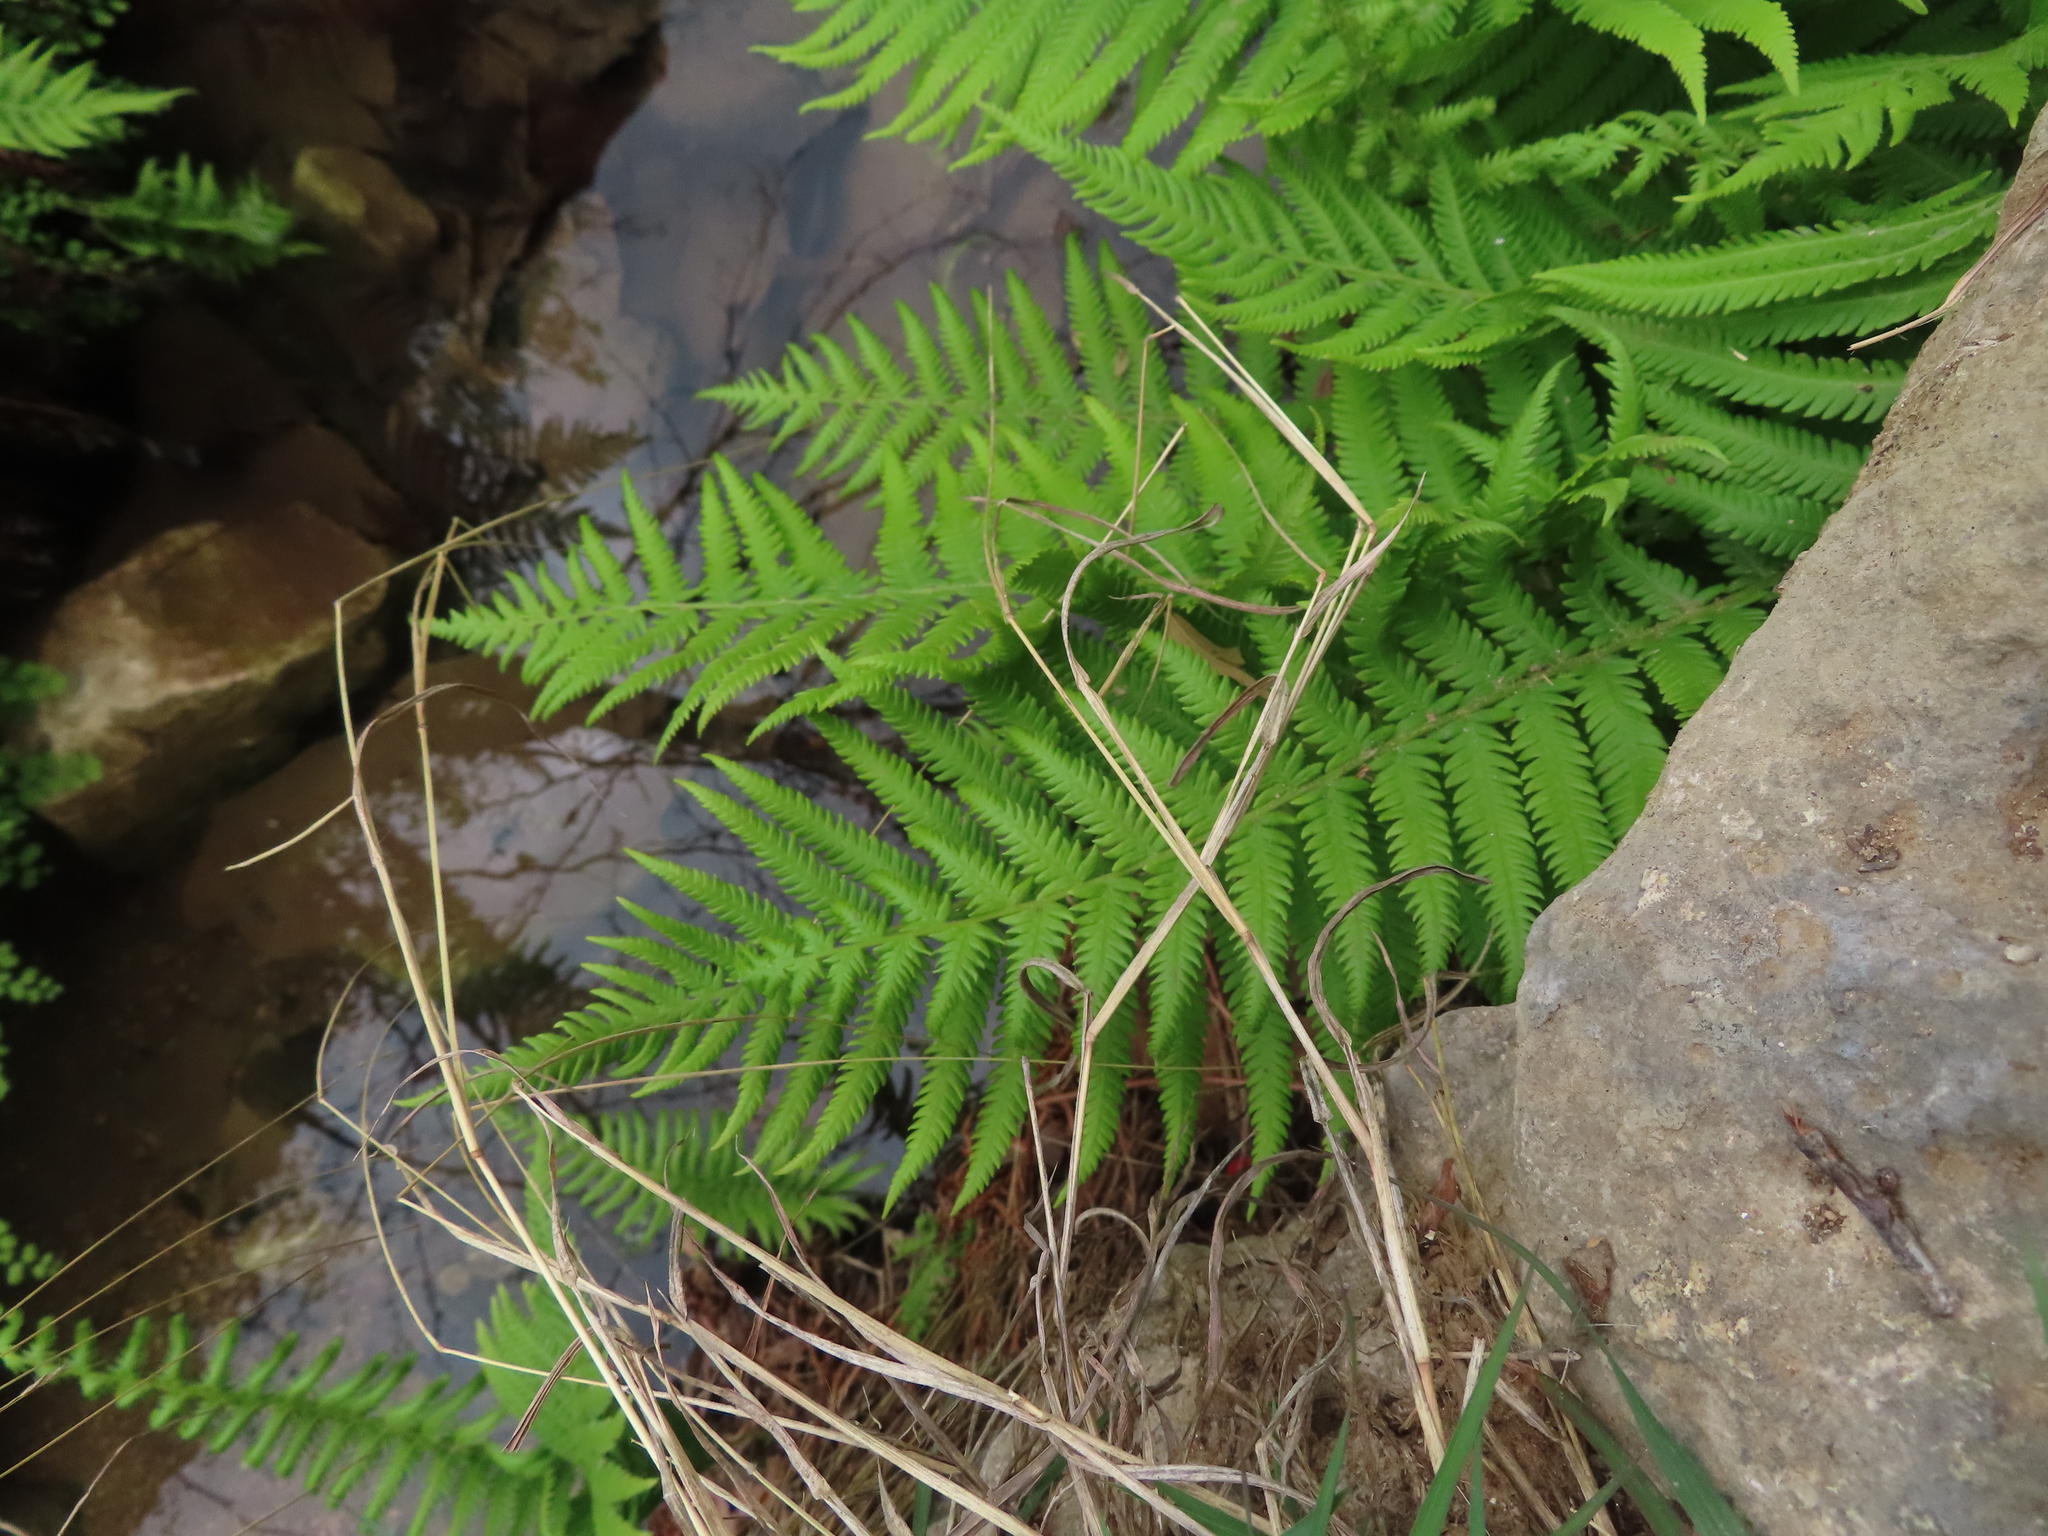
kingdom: Plantae
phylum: Tracheophyta
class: Polypodiopsida
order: Polypodiales
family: Thelypteridaceae
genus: Pelazoneuron
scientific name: Pelazoneuron ovatum
